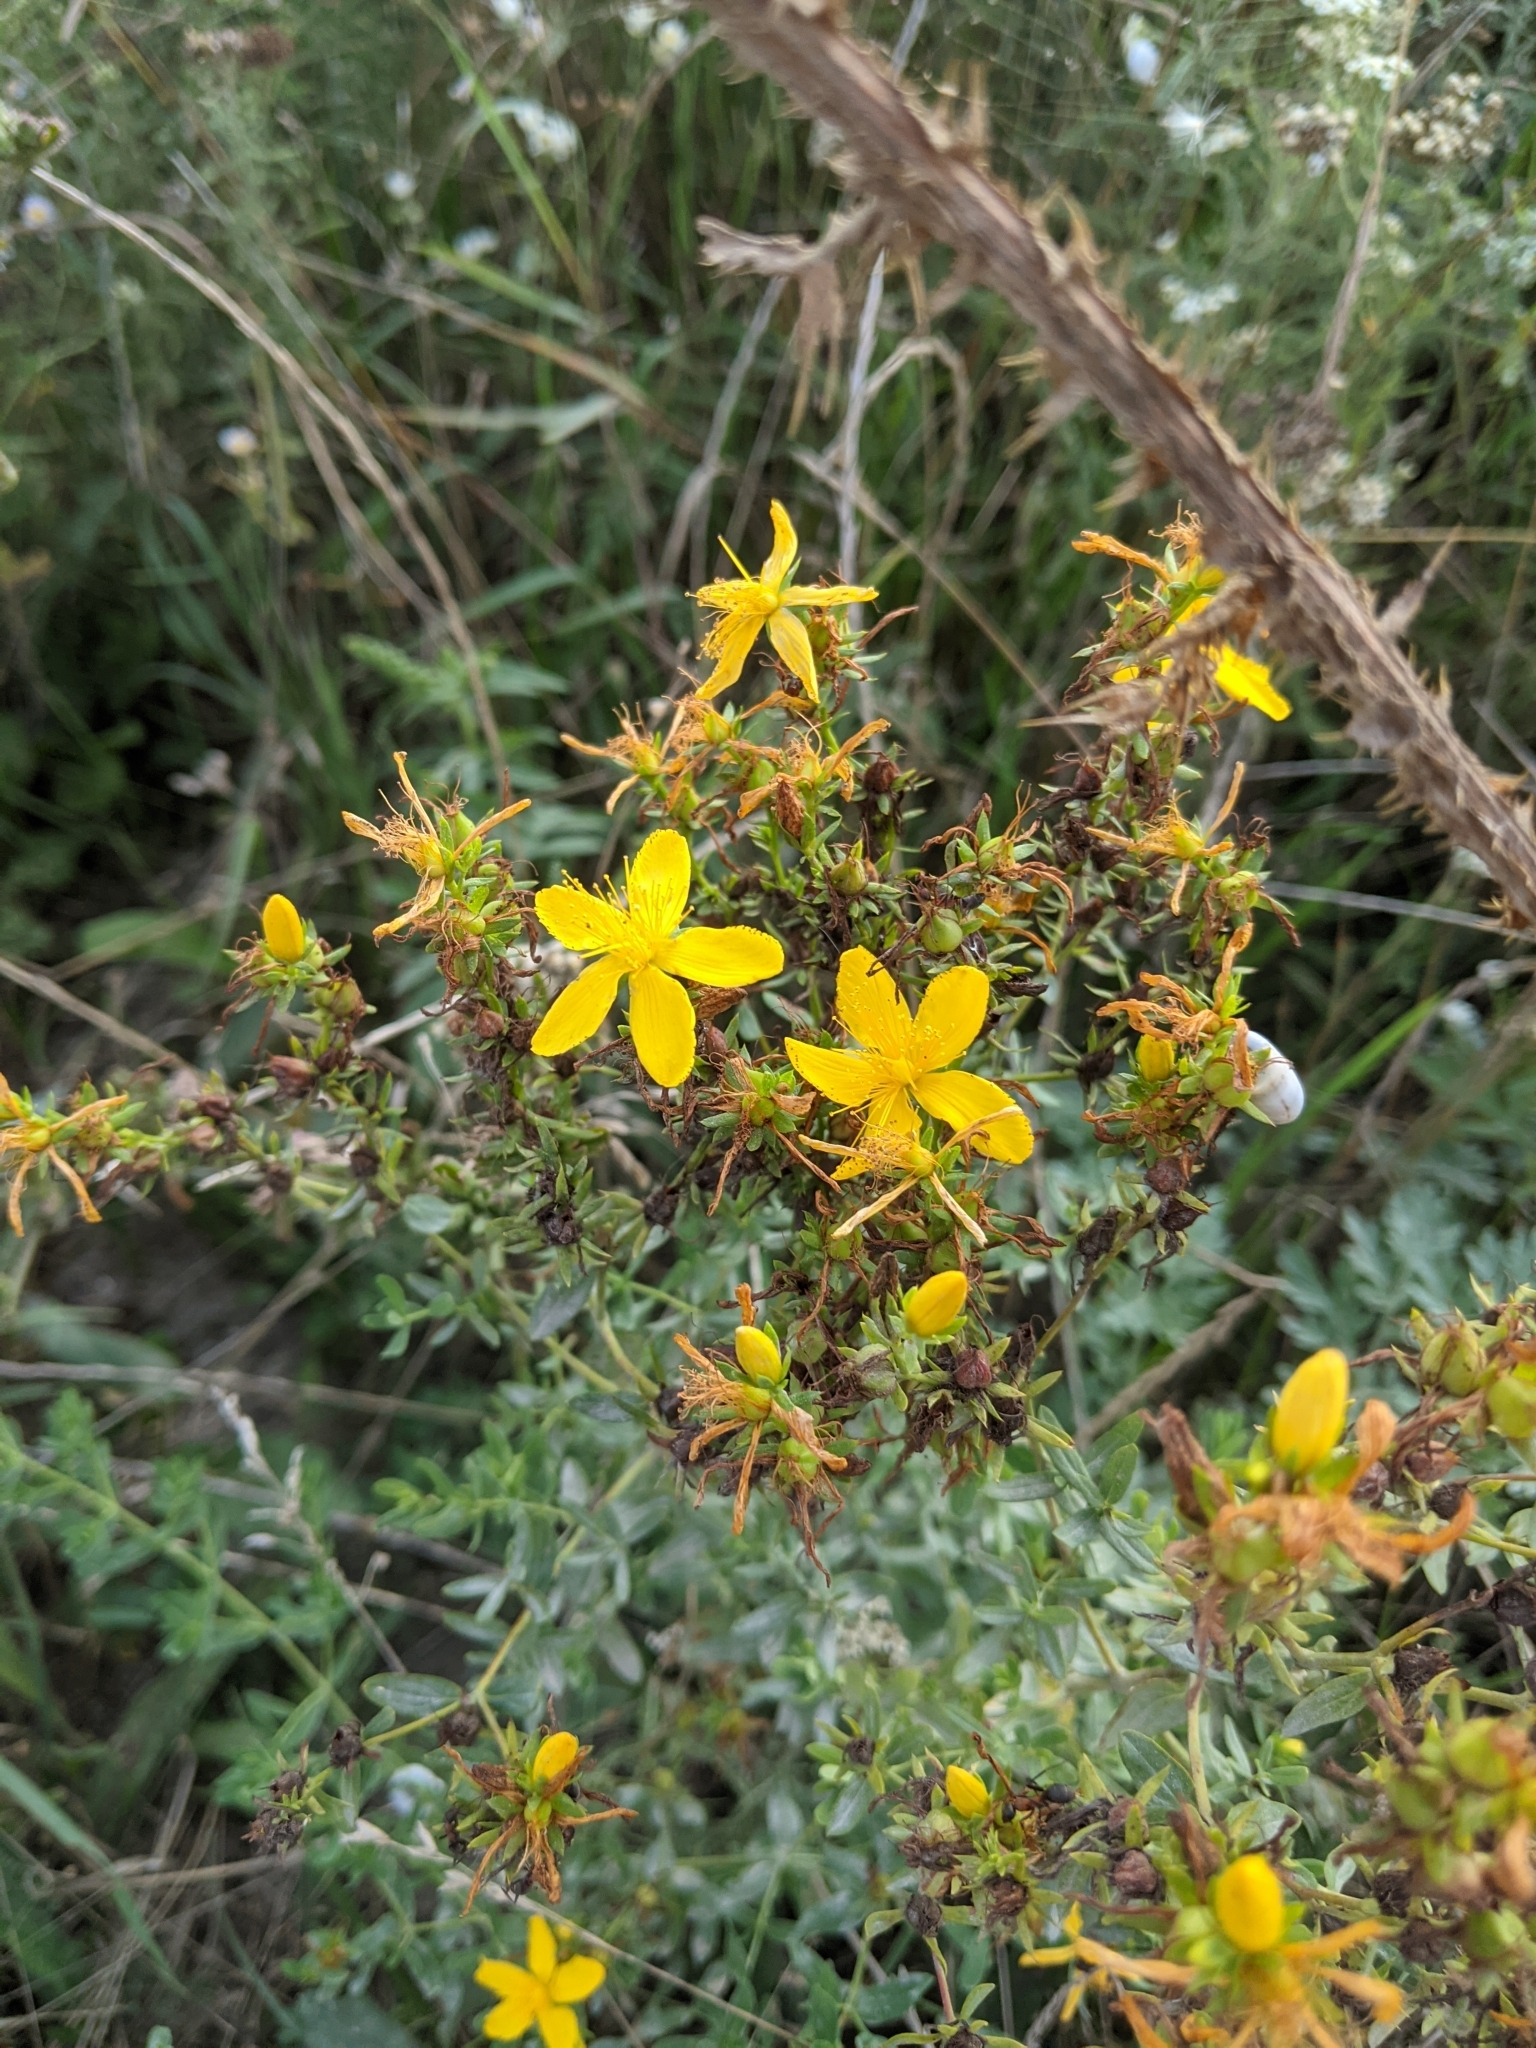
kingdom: Plantae
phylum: Tracheophyta
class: Magnoliopsida
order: Malpighiales
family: Hypericaceae
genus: Hypericum
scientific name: Hypericum perforatum
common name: Common st. johnswort
